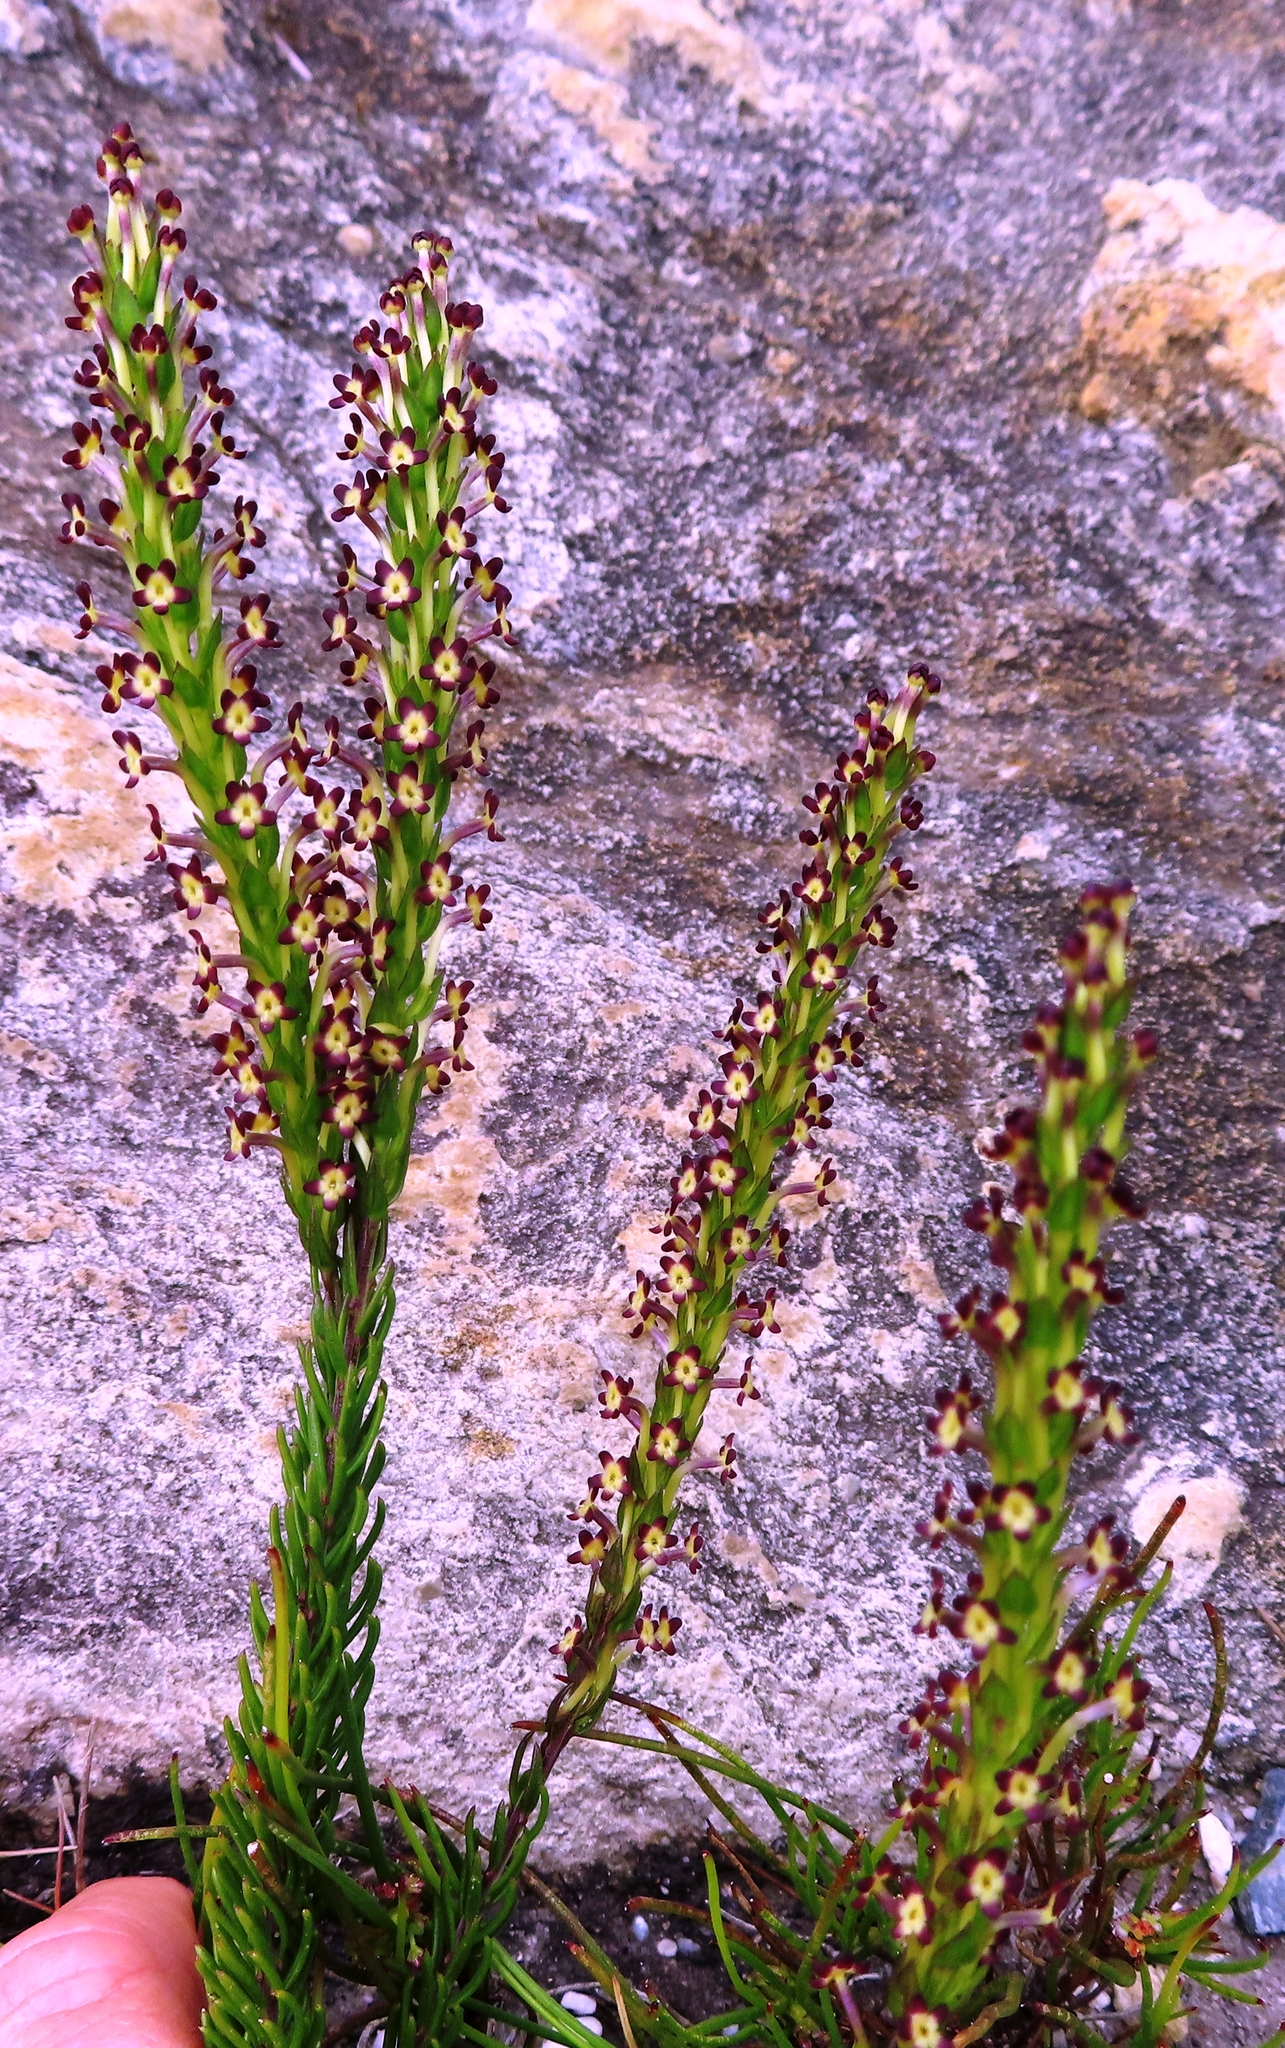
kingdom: Plantae
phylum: Tracheophyta
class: Magnoliopsida
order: Lamiales
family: Scrophulariaceae
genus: Microdon
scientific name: Microdon dubius
